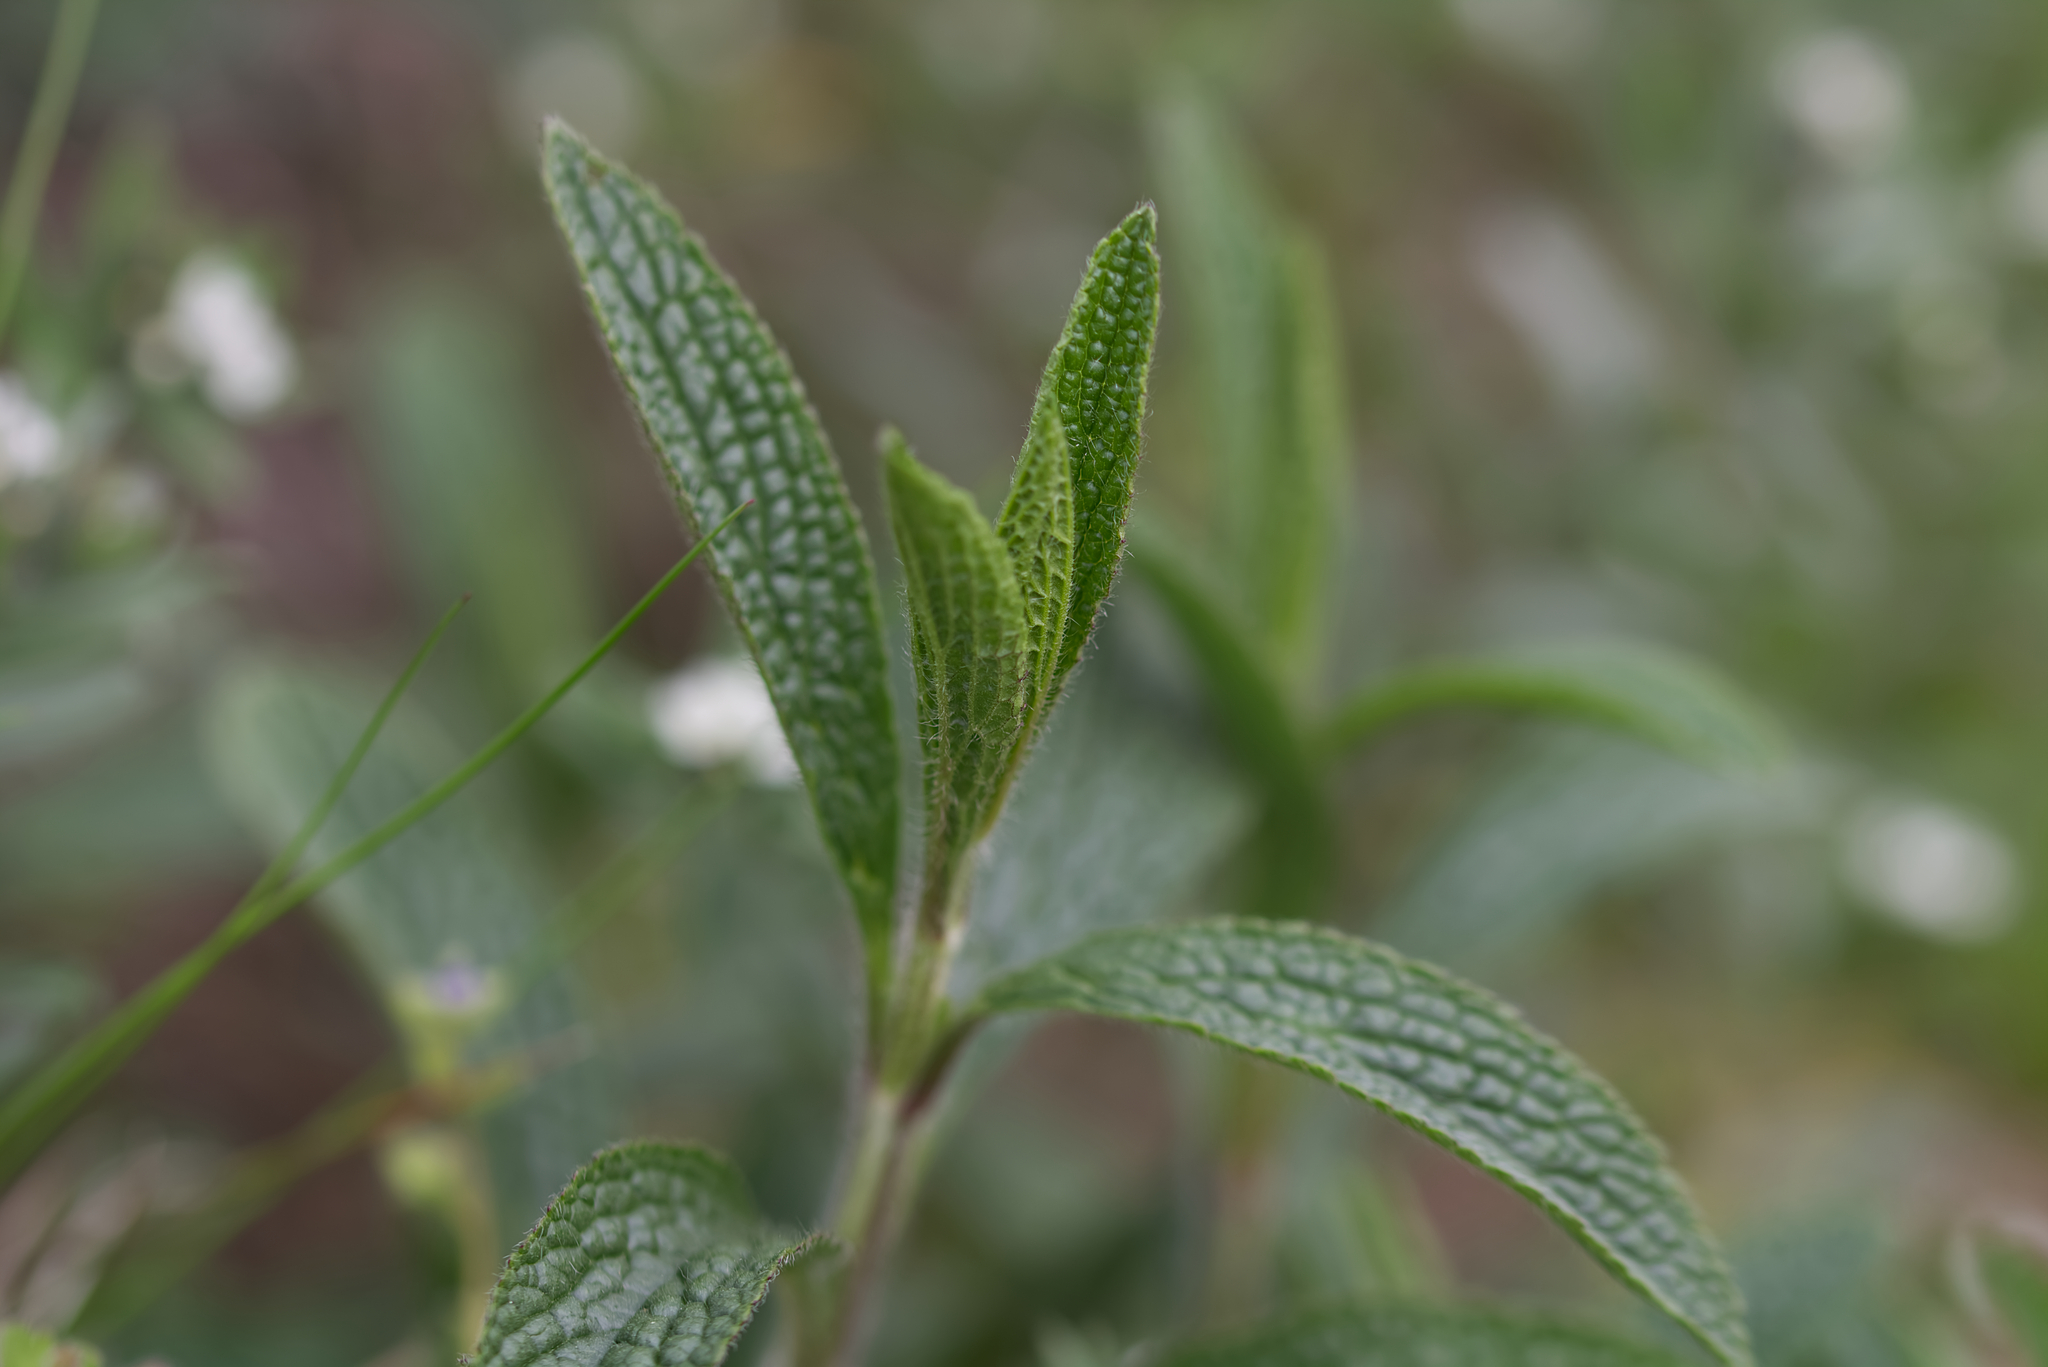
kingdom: Plantae
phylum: Tracheophyta
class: Magnoliopsida
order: Lamiales
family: Lamiaceae
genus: Stachys
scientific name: Stachys recta
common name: Perennial yellow-woundwort
